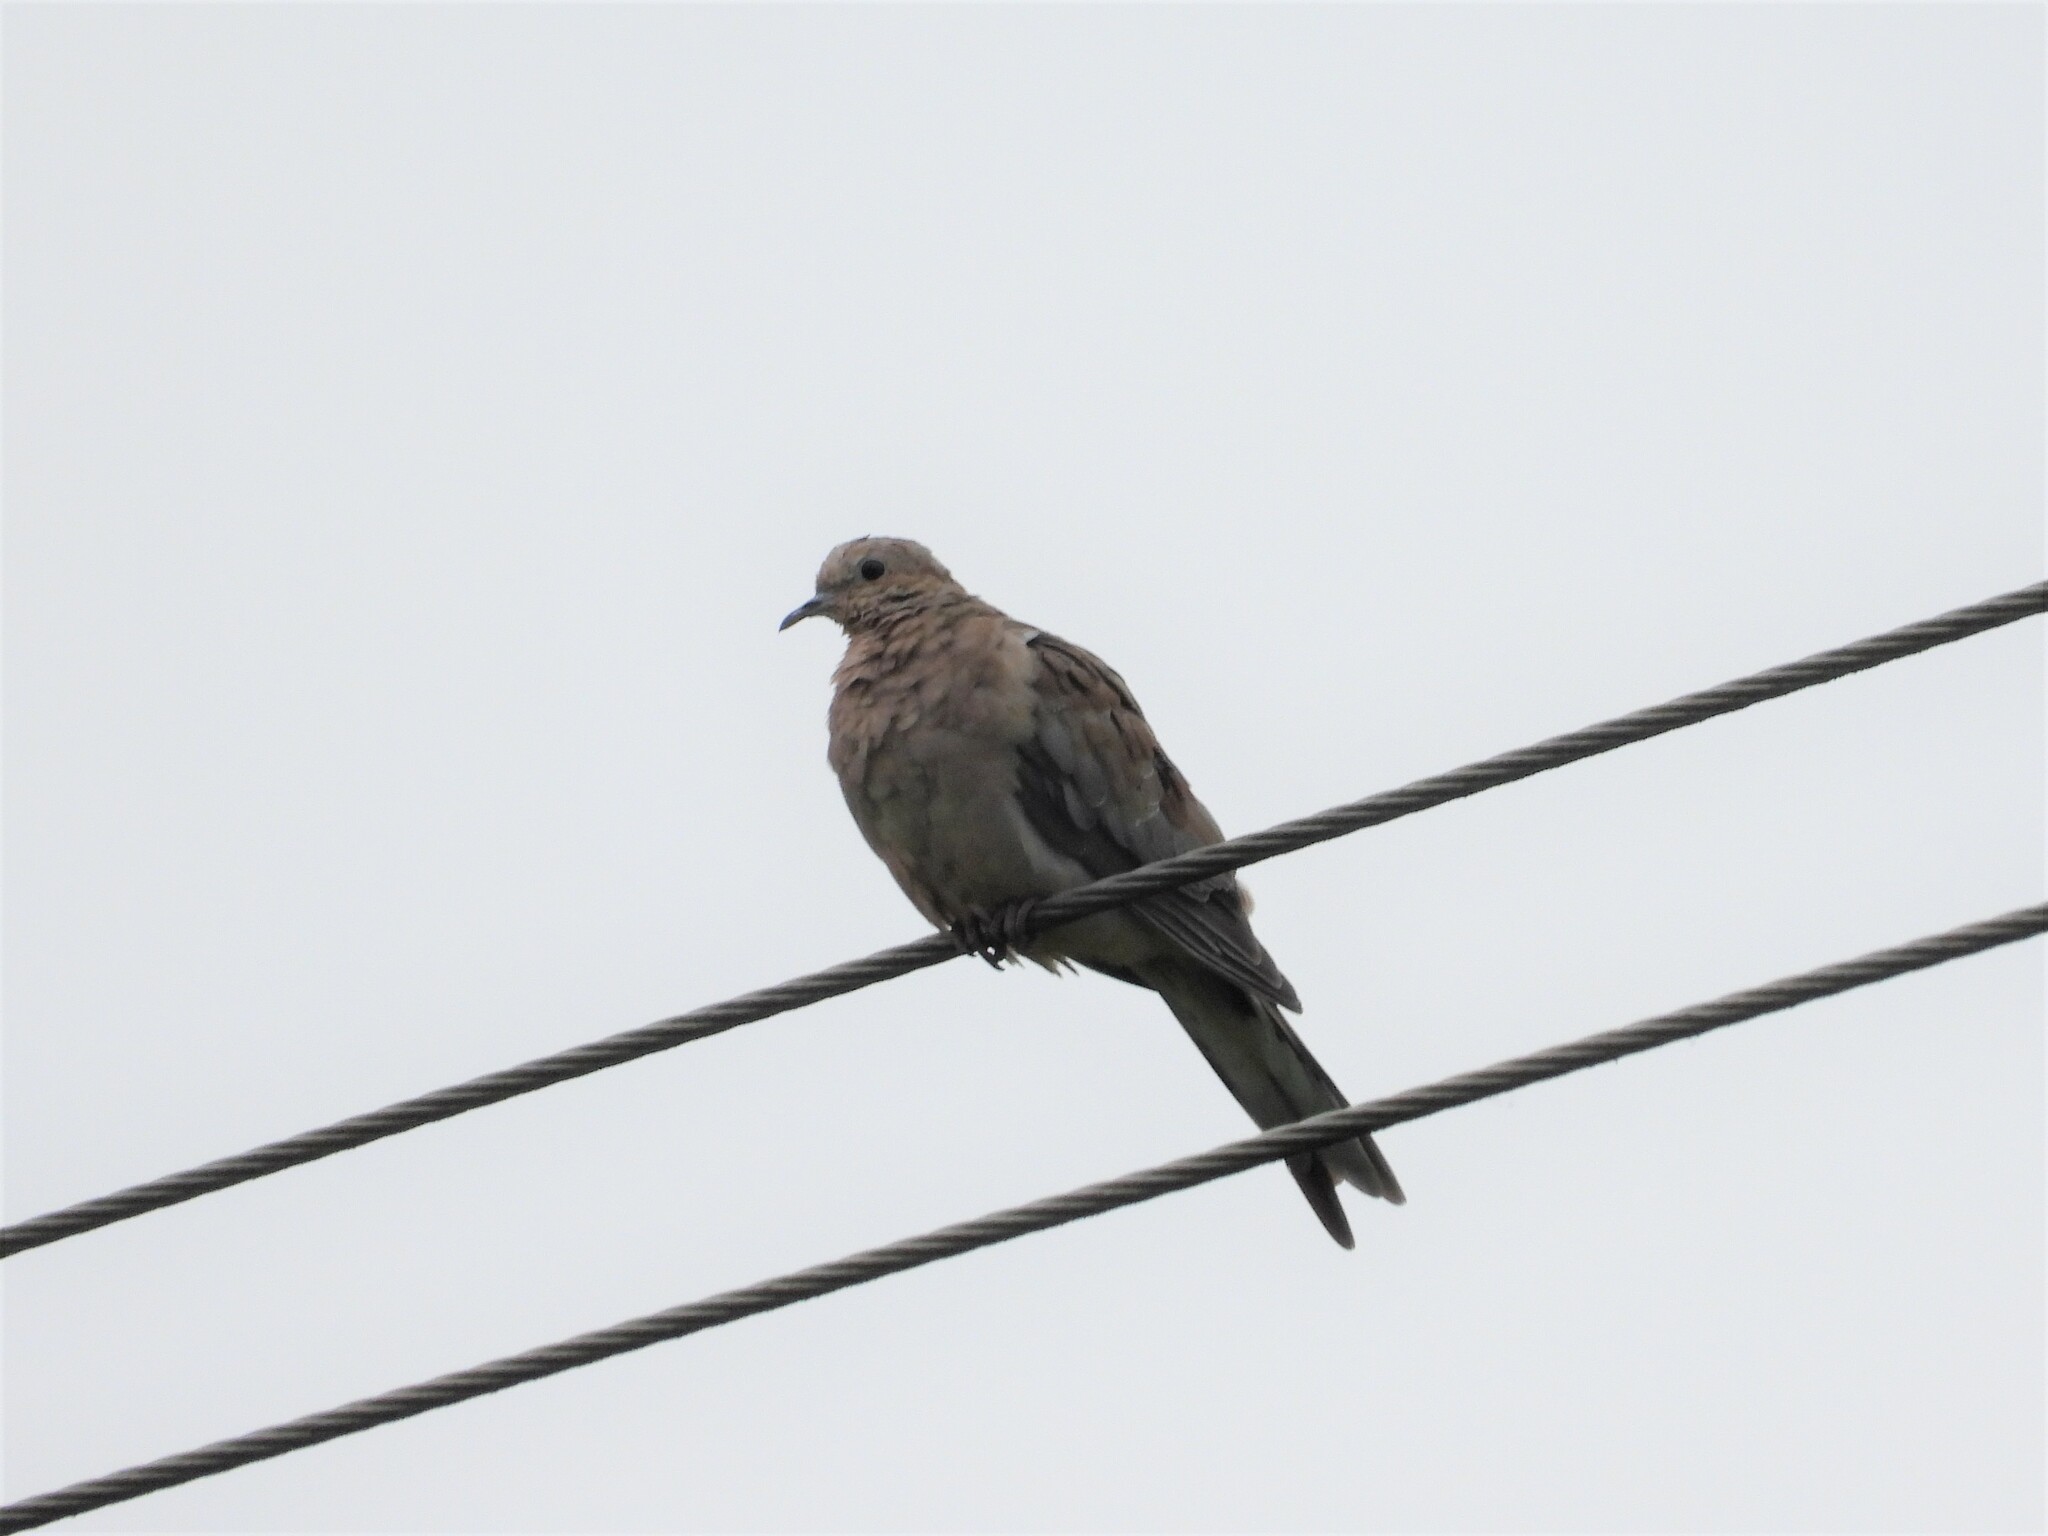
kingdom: Animalia
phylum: Chordata
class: Aves
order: Columbiformes
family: Columbidae
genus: Zenaida
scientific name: Zenaida macroura
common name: Mourning dove
